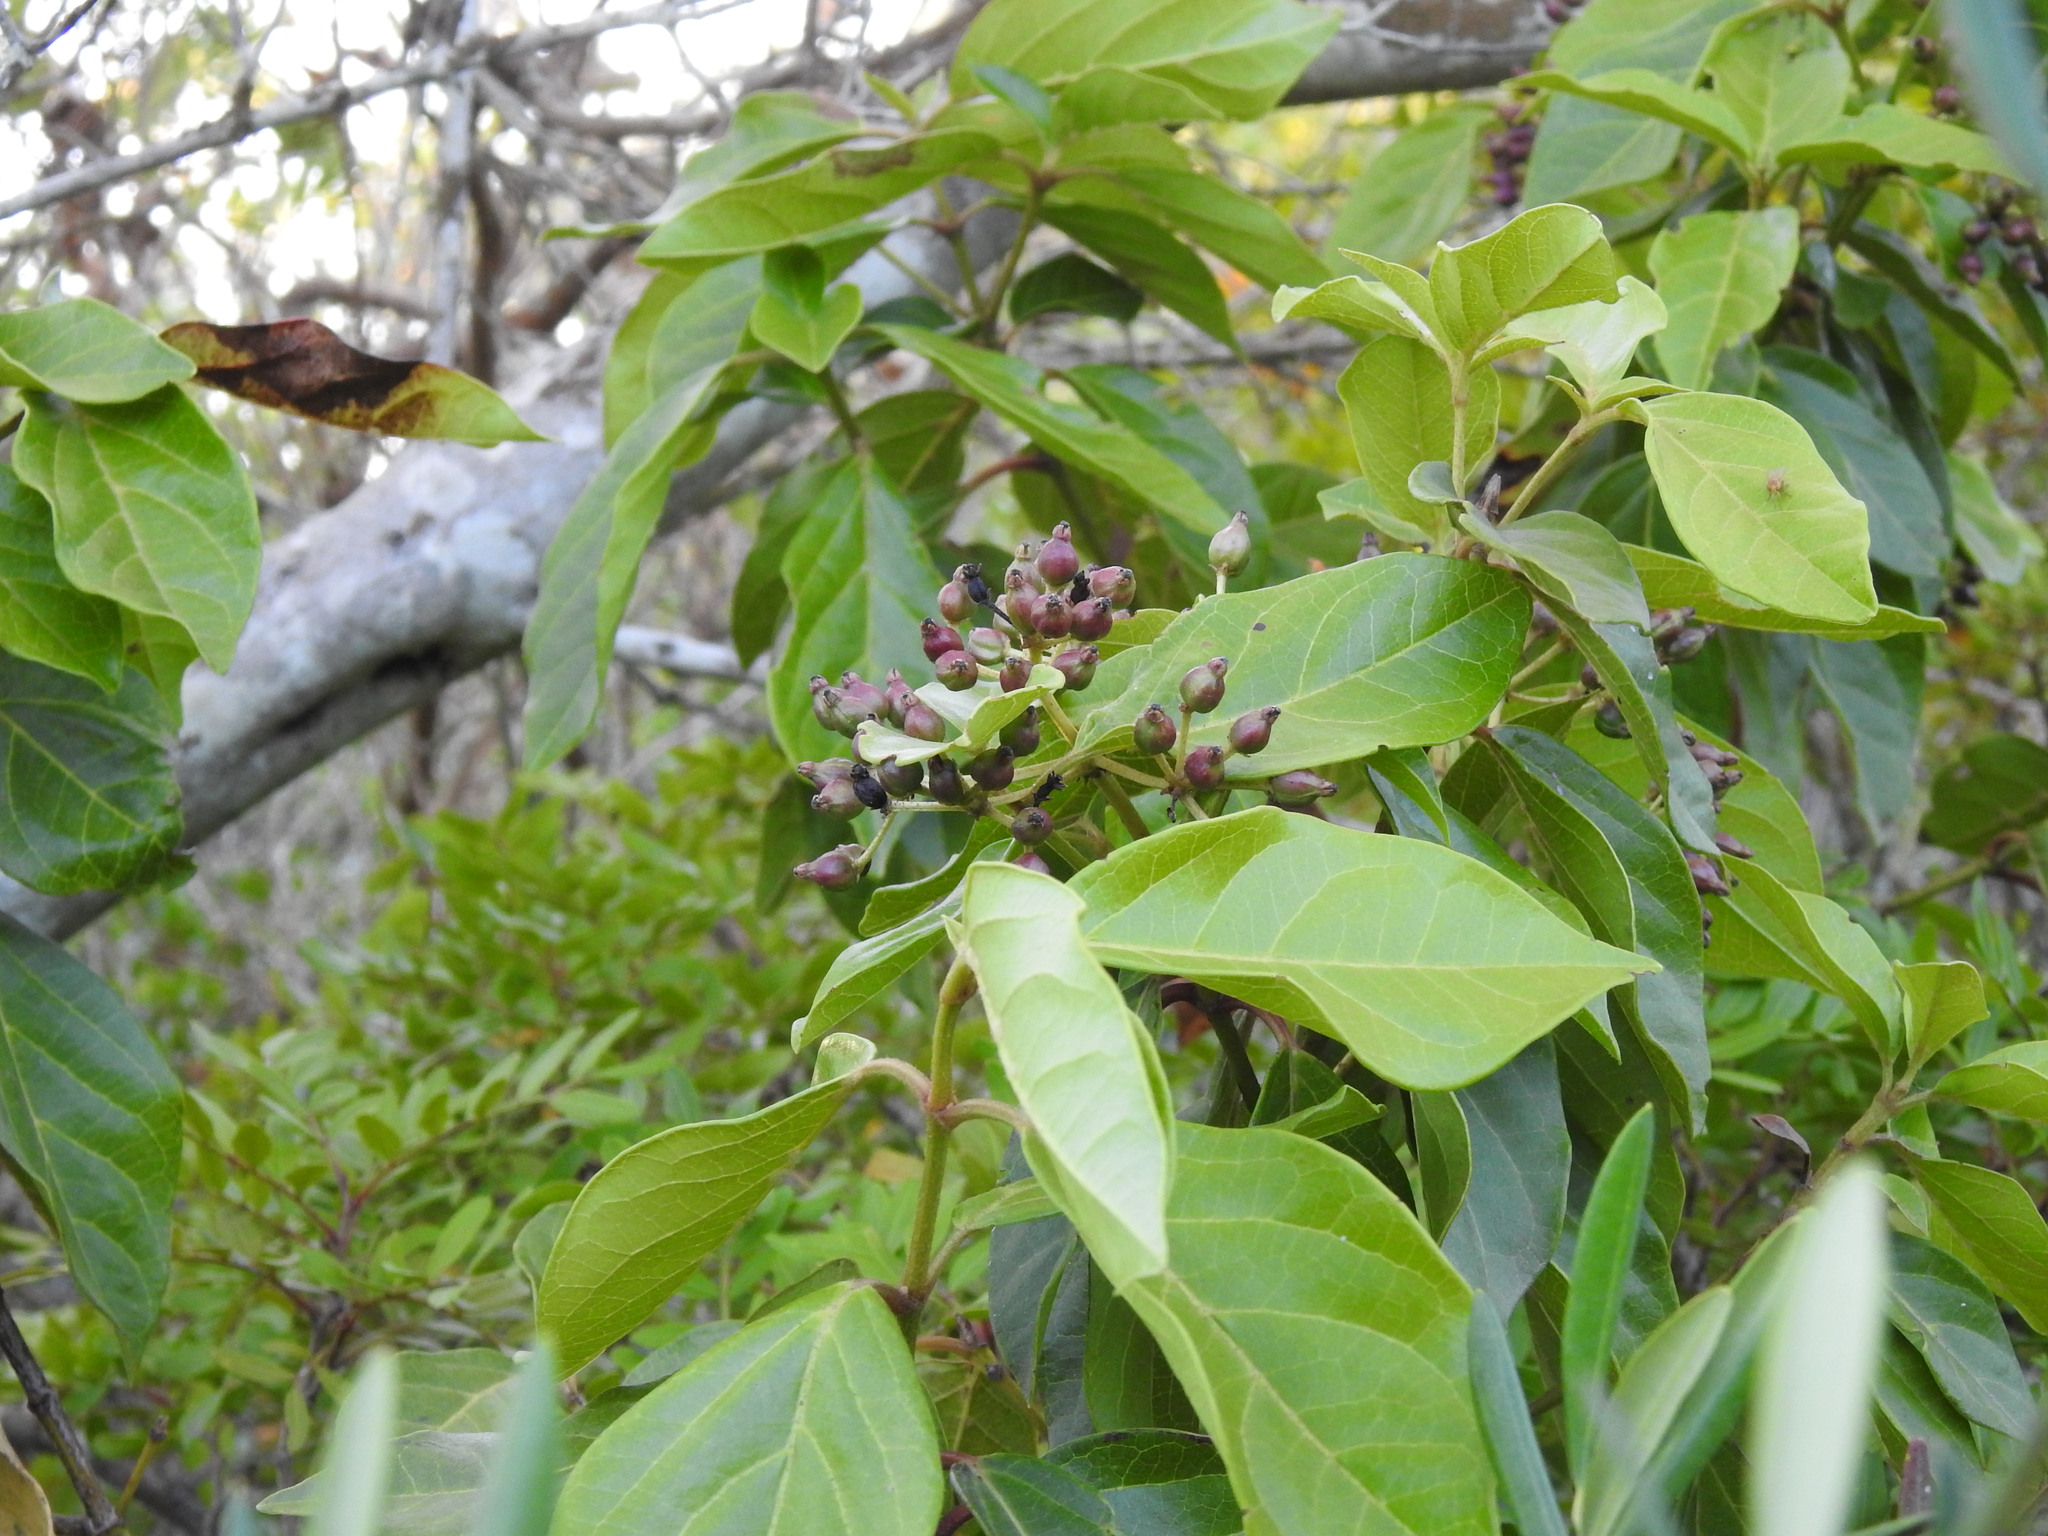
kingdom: Plantae
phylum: Tracheophyta
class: Magnoliopsida
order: Dipsacales
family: Viburnaceae
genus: Viburnum
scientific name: Viburnum tinus
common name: Laurustinus
